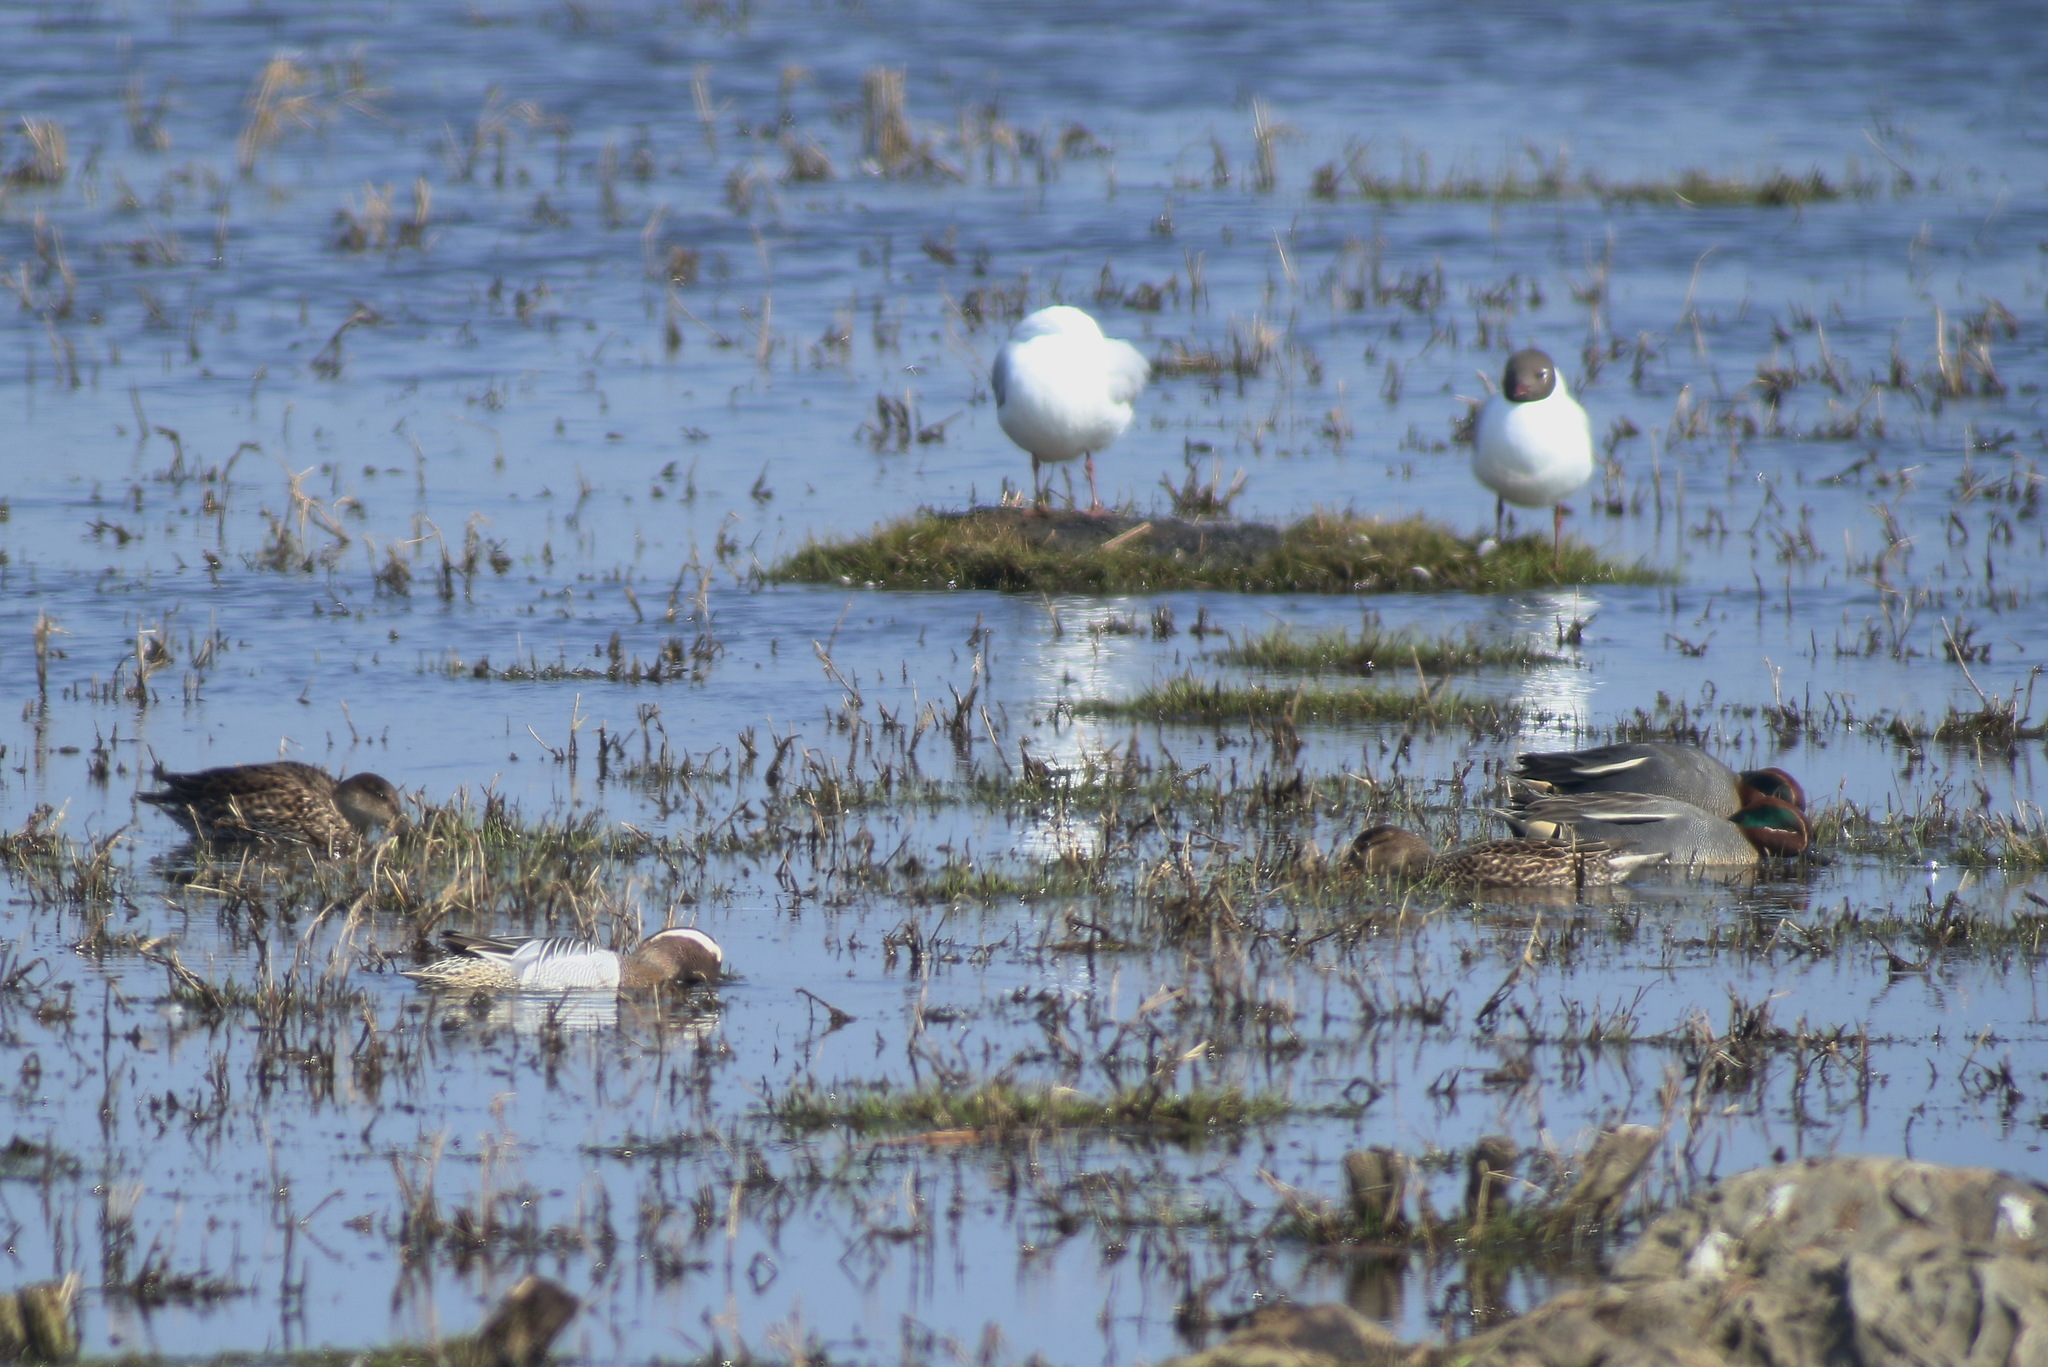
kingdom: Animalia
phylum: Chordata
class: Aves
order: Anseriformes
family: Anatidae
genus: Anas
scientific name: Anas crecca
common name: Eurasian teal
